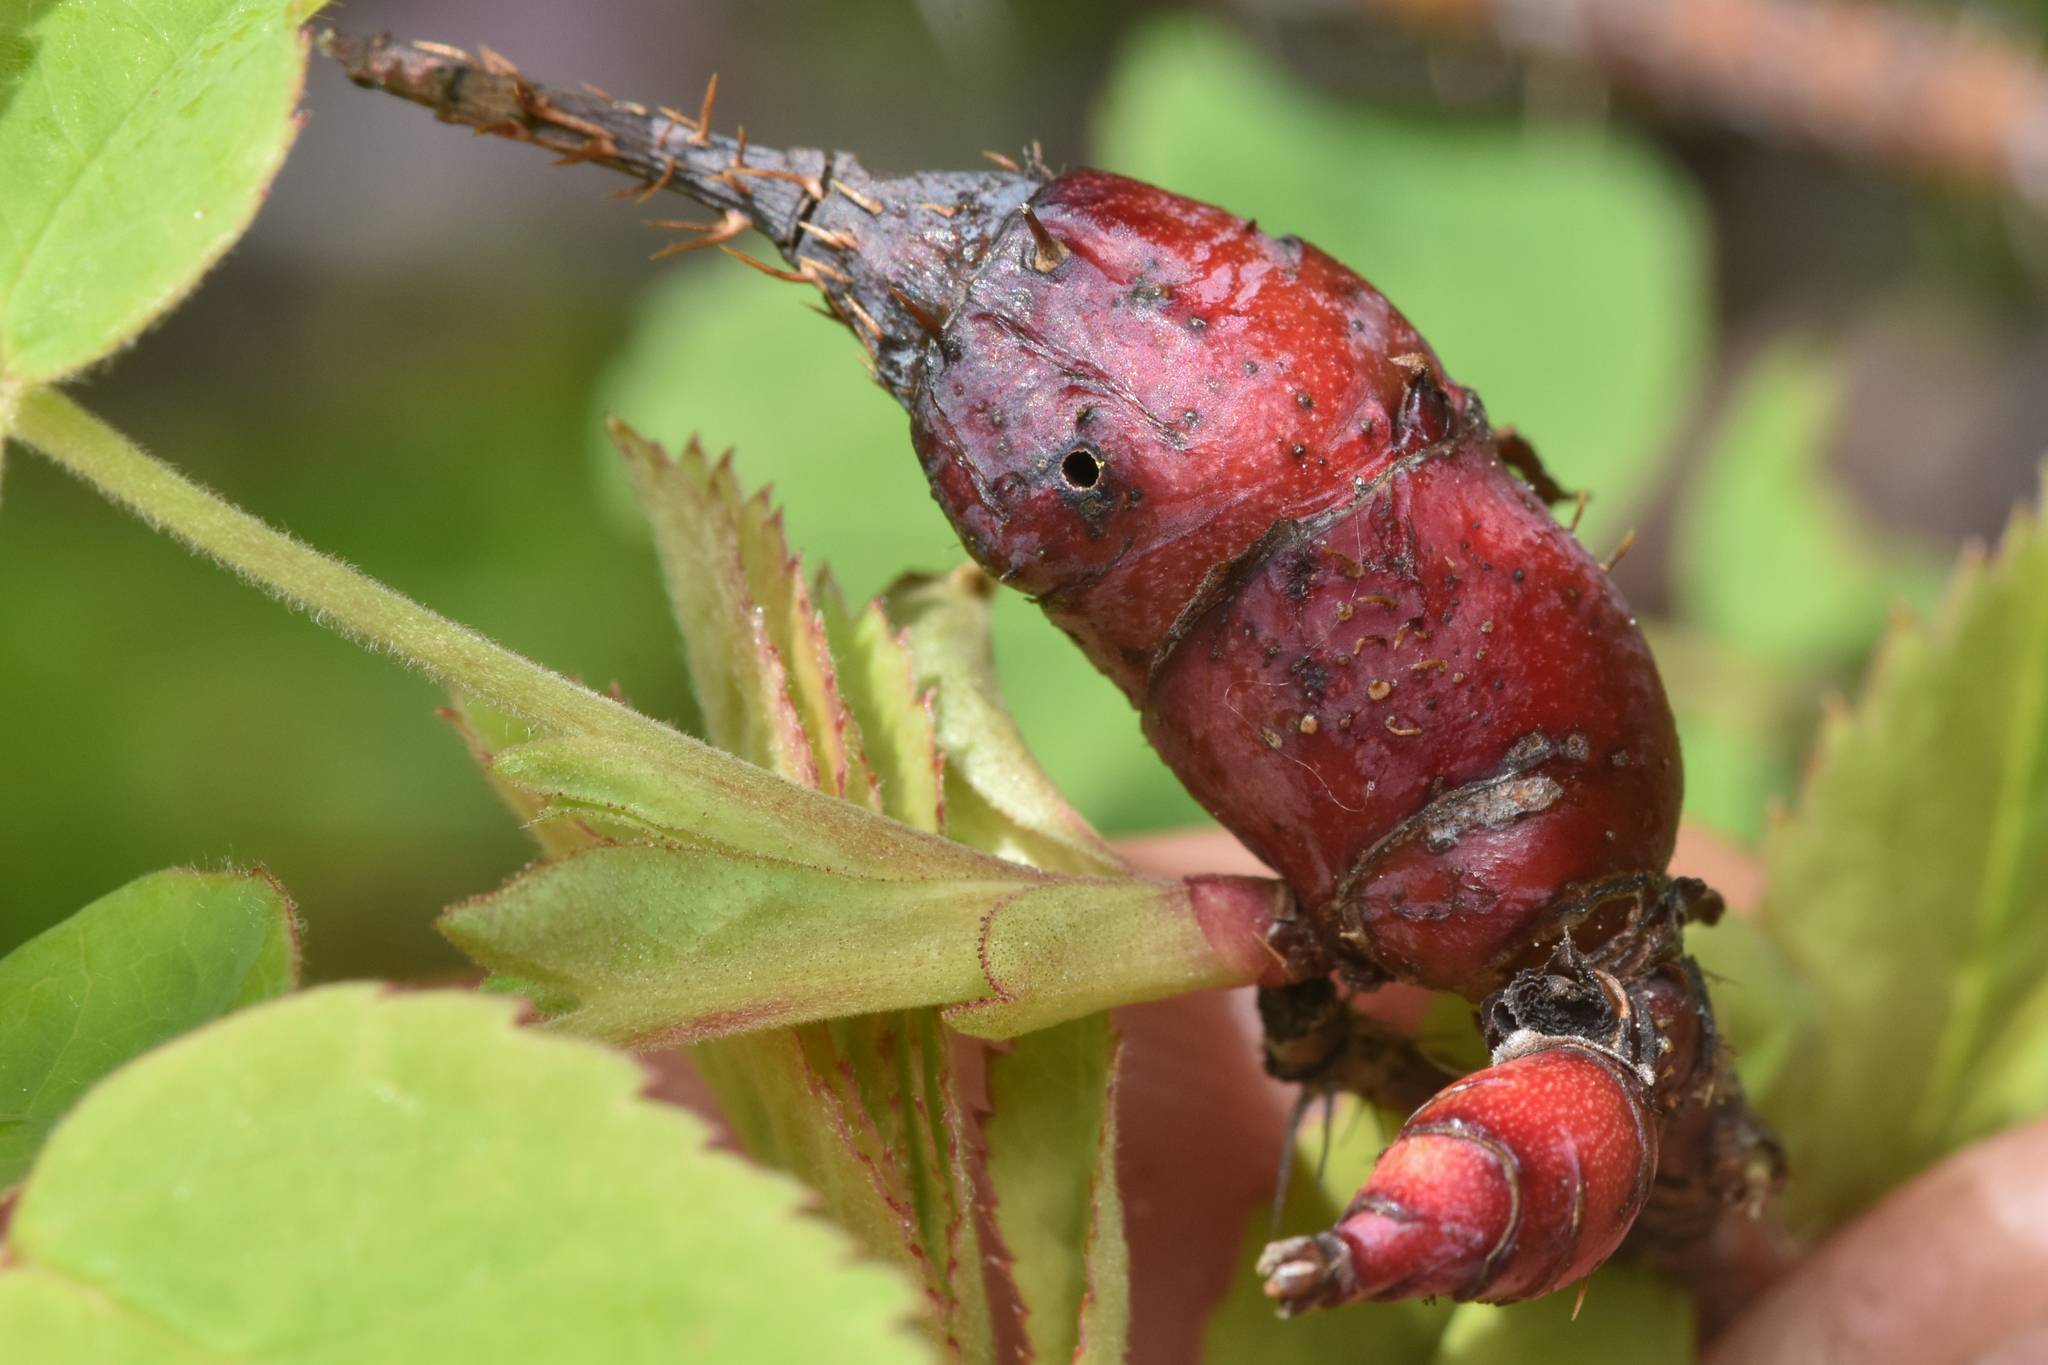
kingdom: Animalia
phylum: Arthropoda
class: Insecta
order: Hymenoptera
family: Cynipidae
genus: Diplolepis
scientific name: Diplolepis triforma
